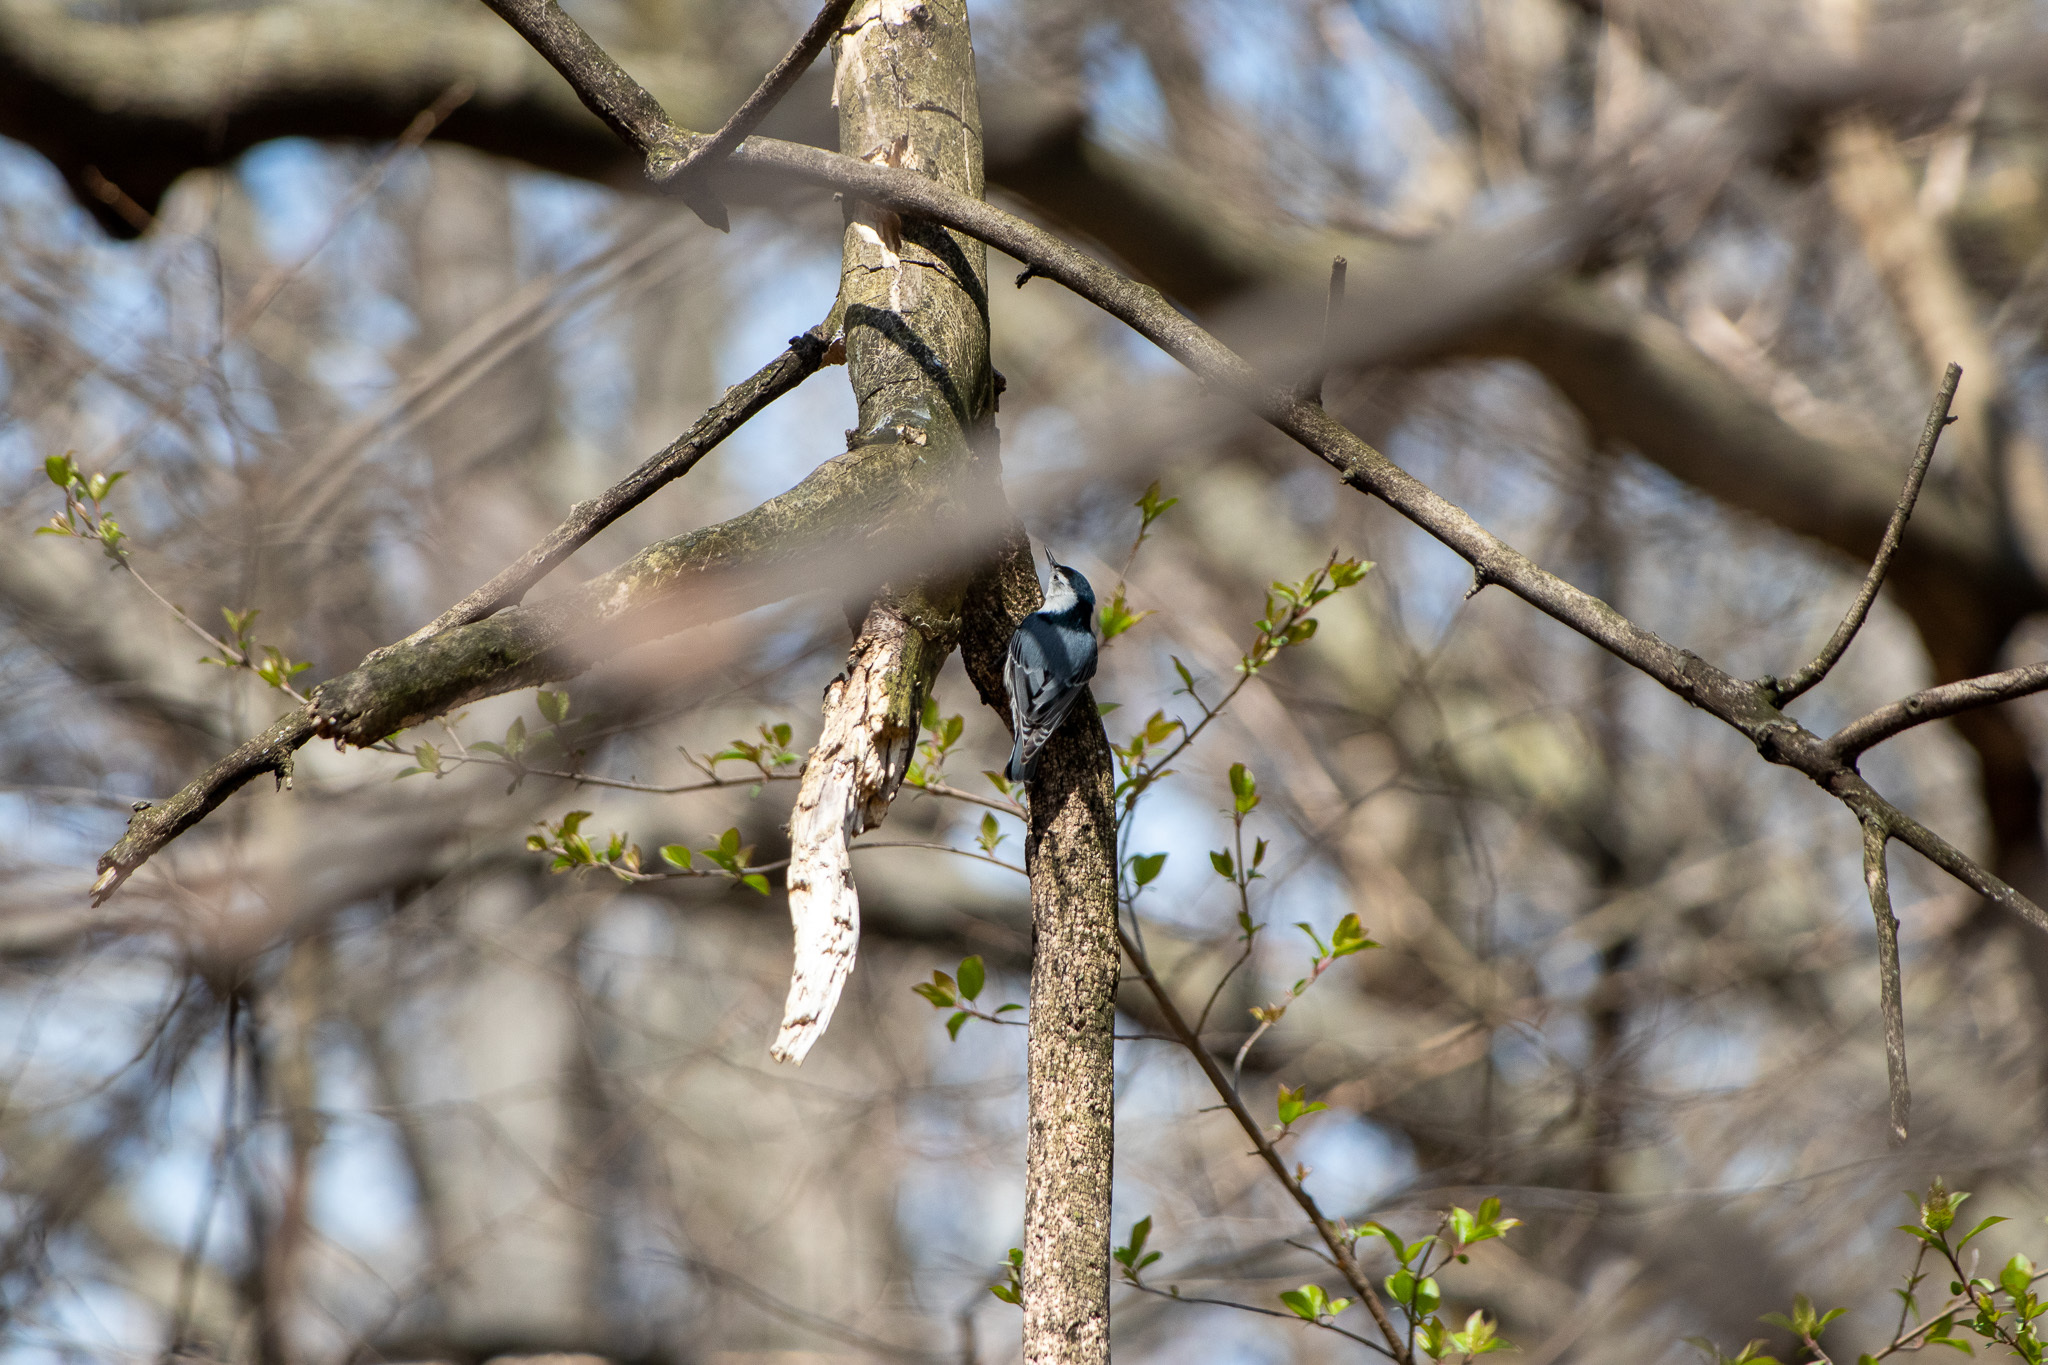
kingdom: Animalia
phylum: Chordata
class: Aves
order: Passeriformes
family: Sittidae
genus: Sitta
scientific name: Sitta carolinensis
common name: White-breasted nuthatch
